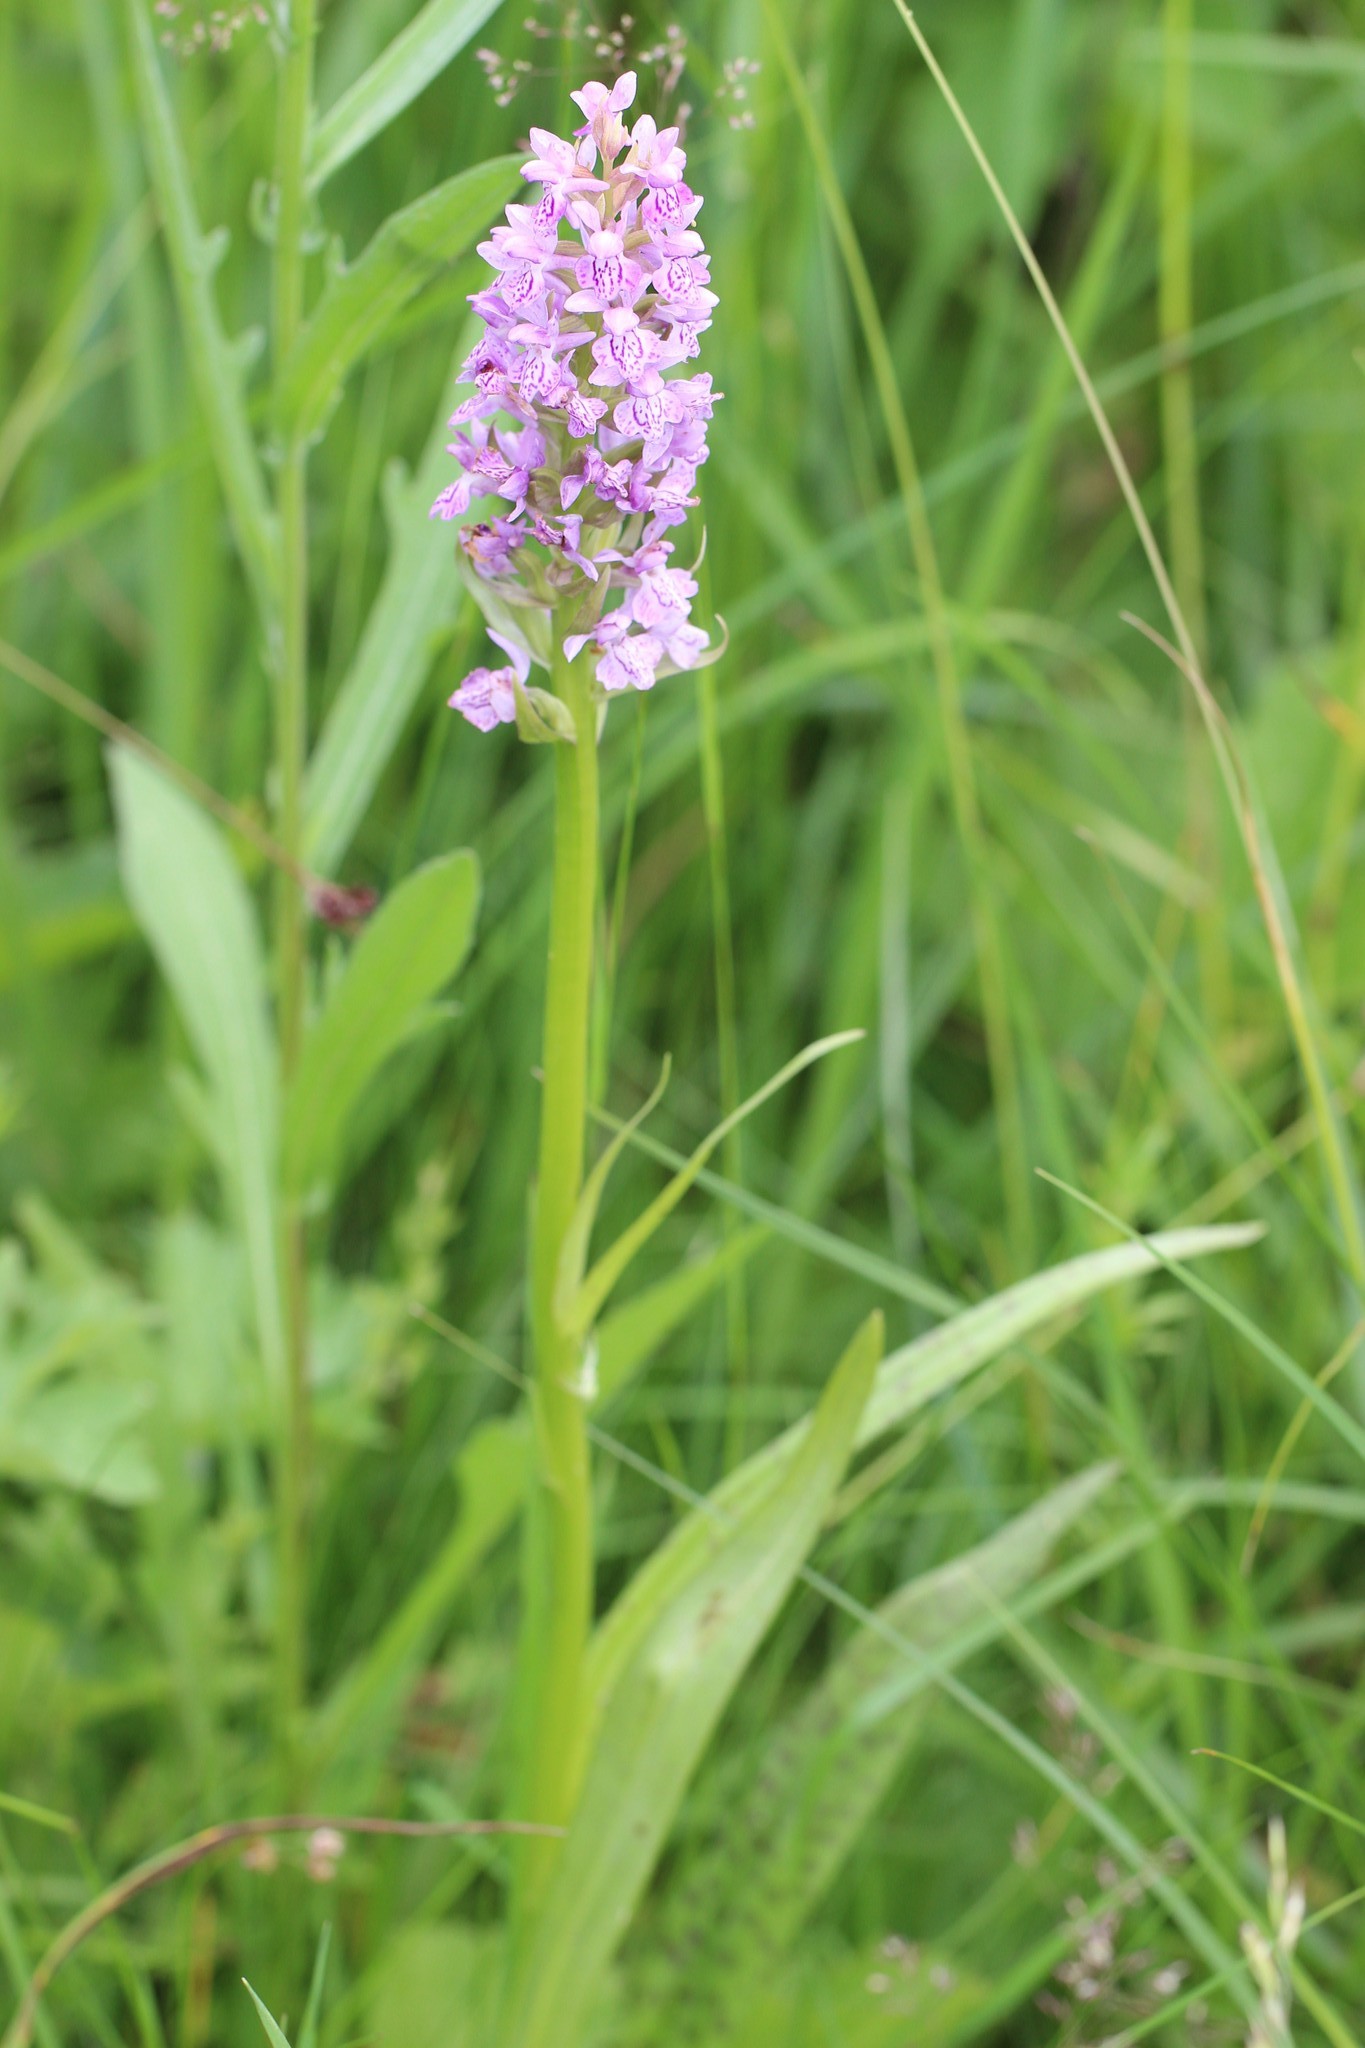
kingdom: Plantae
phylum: Tracheophyta
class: Liliopsida
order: Asparagales
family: Orchidaceae
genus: Dactylorhiza
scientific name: Dactylorhiza majalis
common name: Marsh orchid
